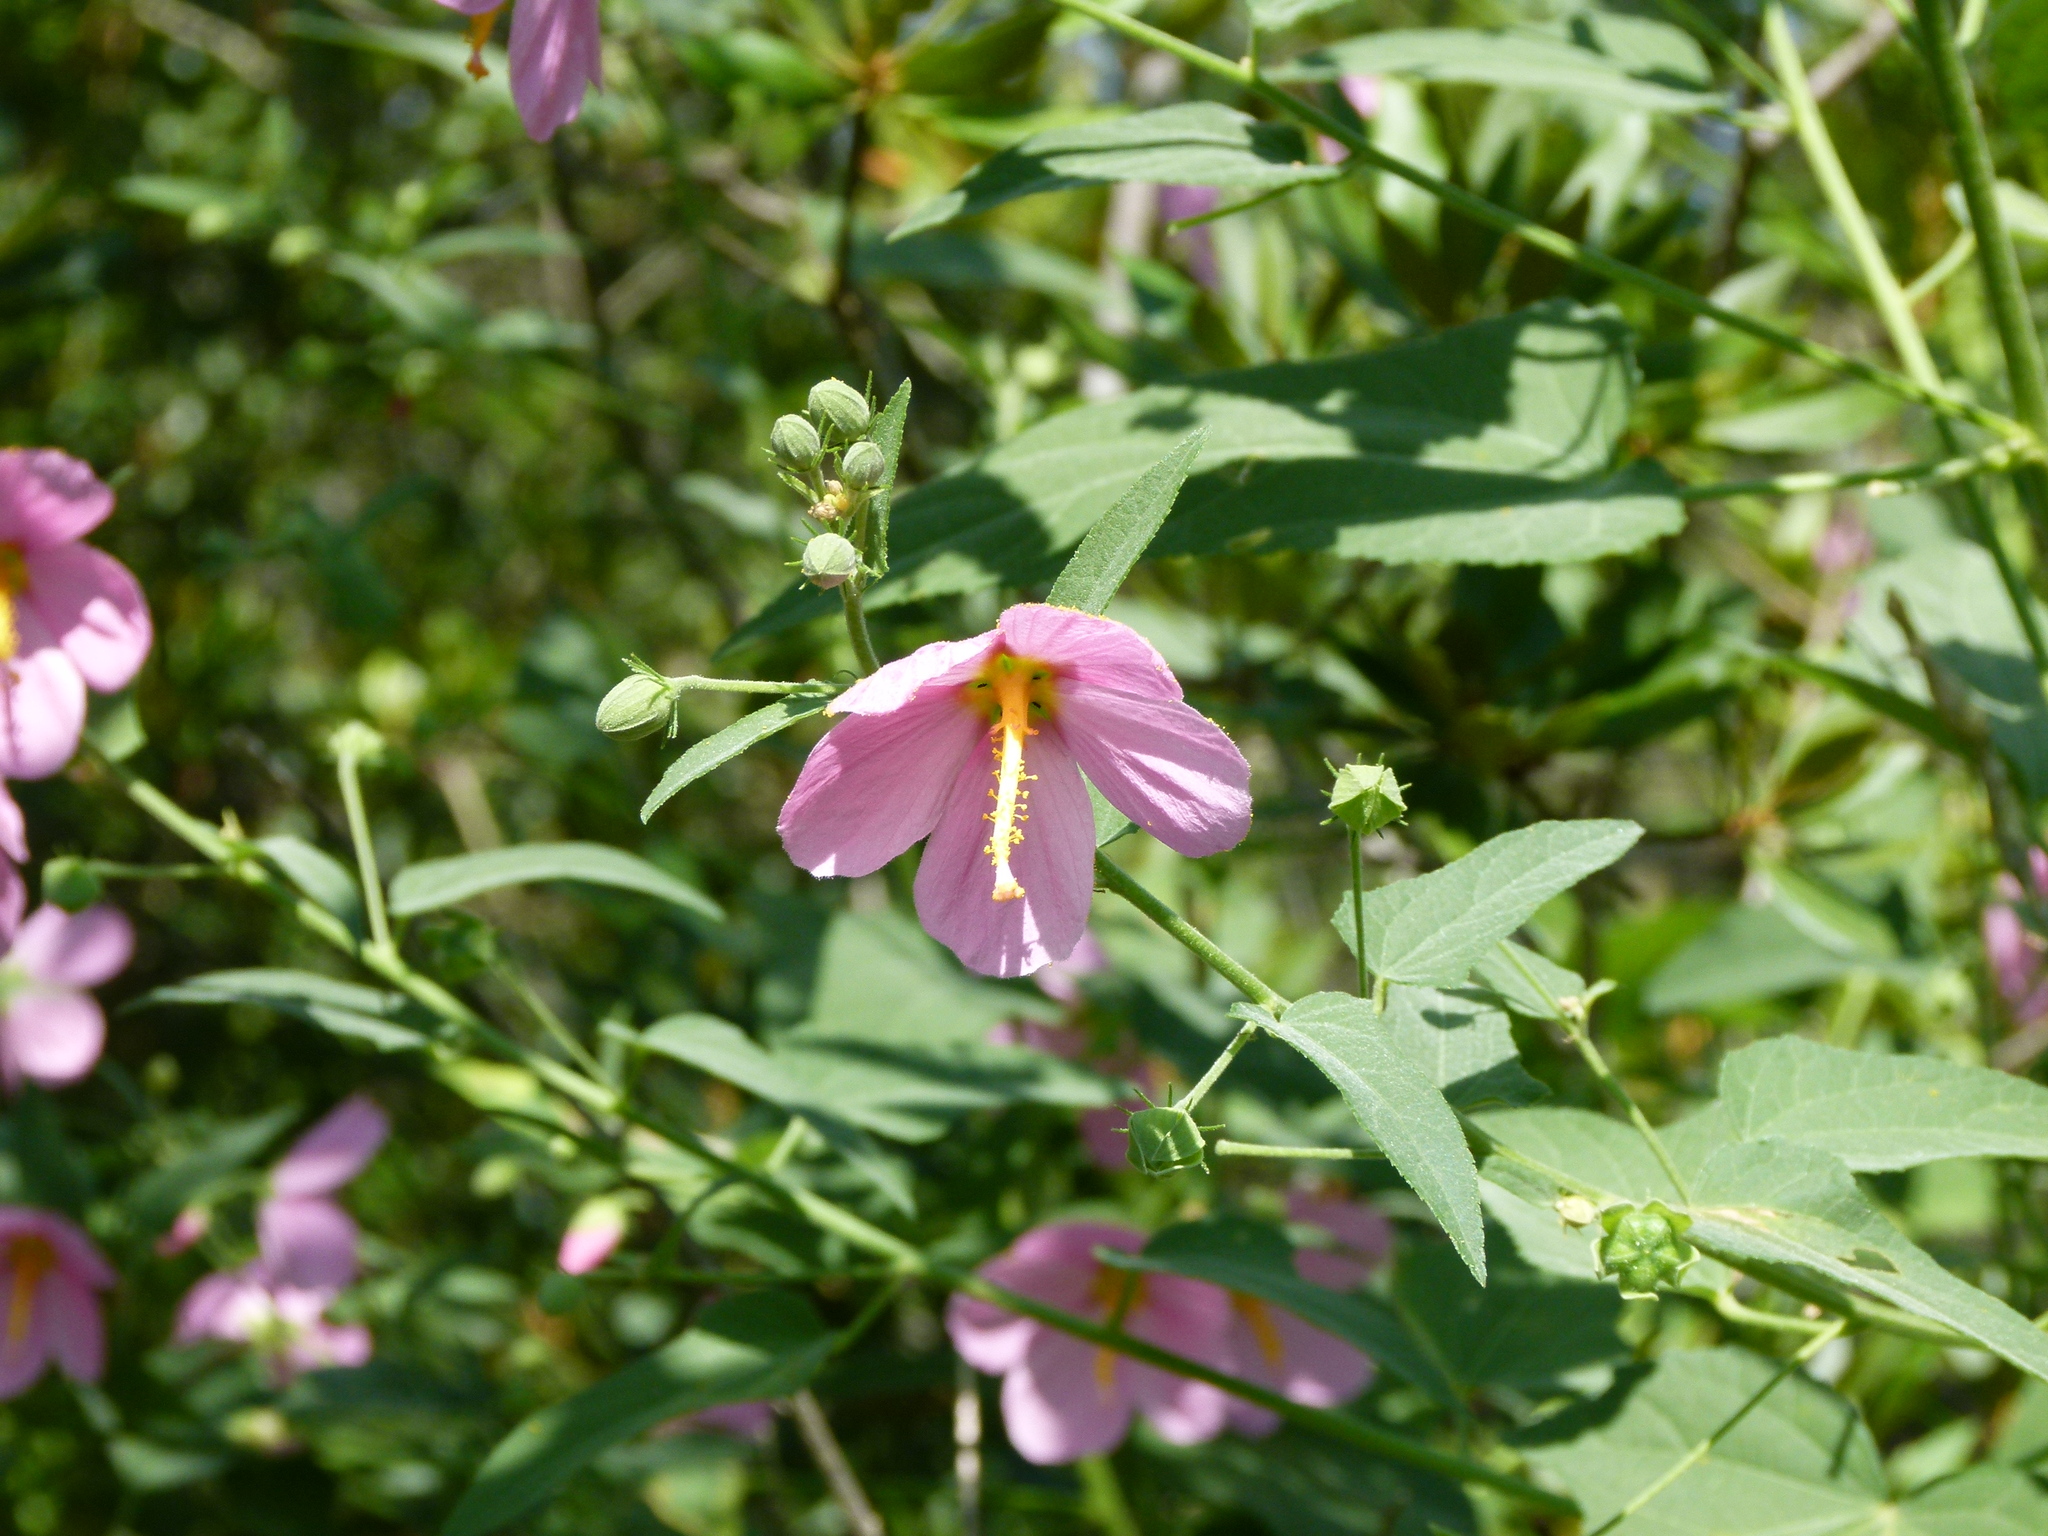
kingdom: Plantae
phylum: Tracheophyta
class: Magnoliopsida
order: Malvales
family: Malvaceae
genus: Kosteletzkya
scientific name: Kosteletzkya pentacarpos
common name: Virginia saltmarsh mallow
